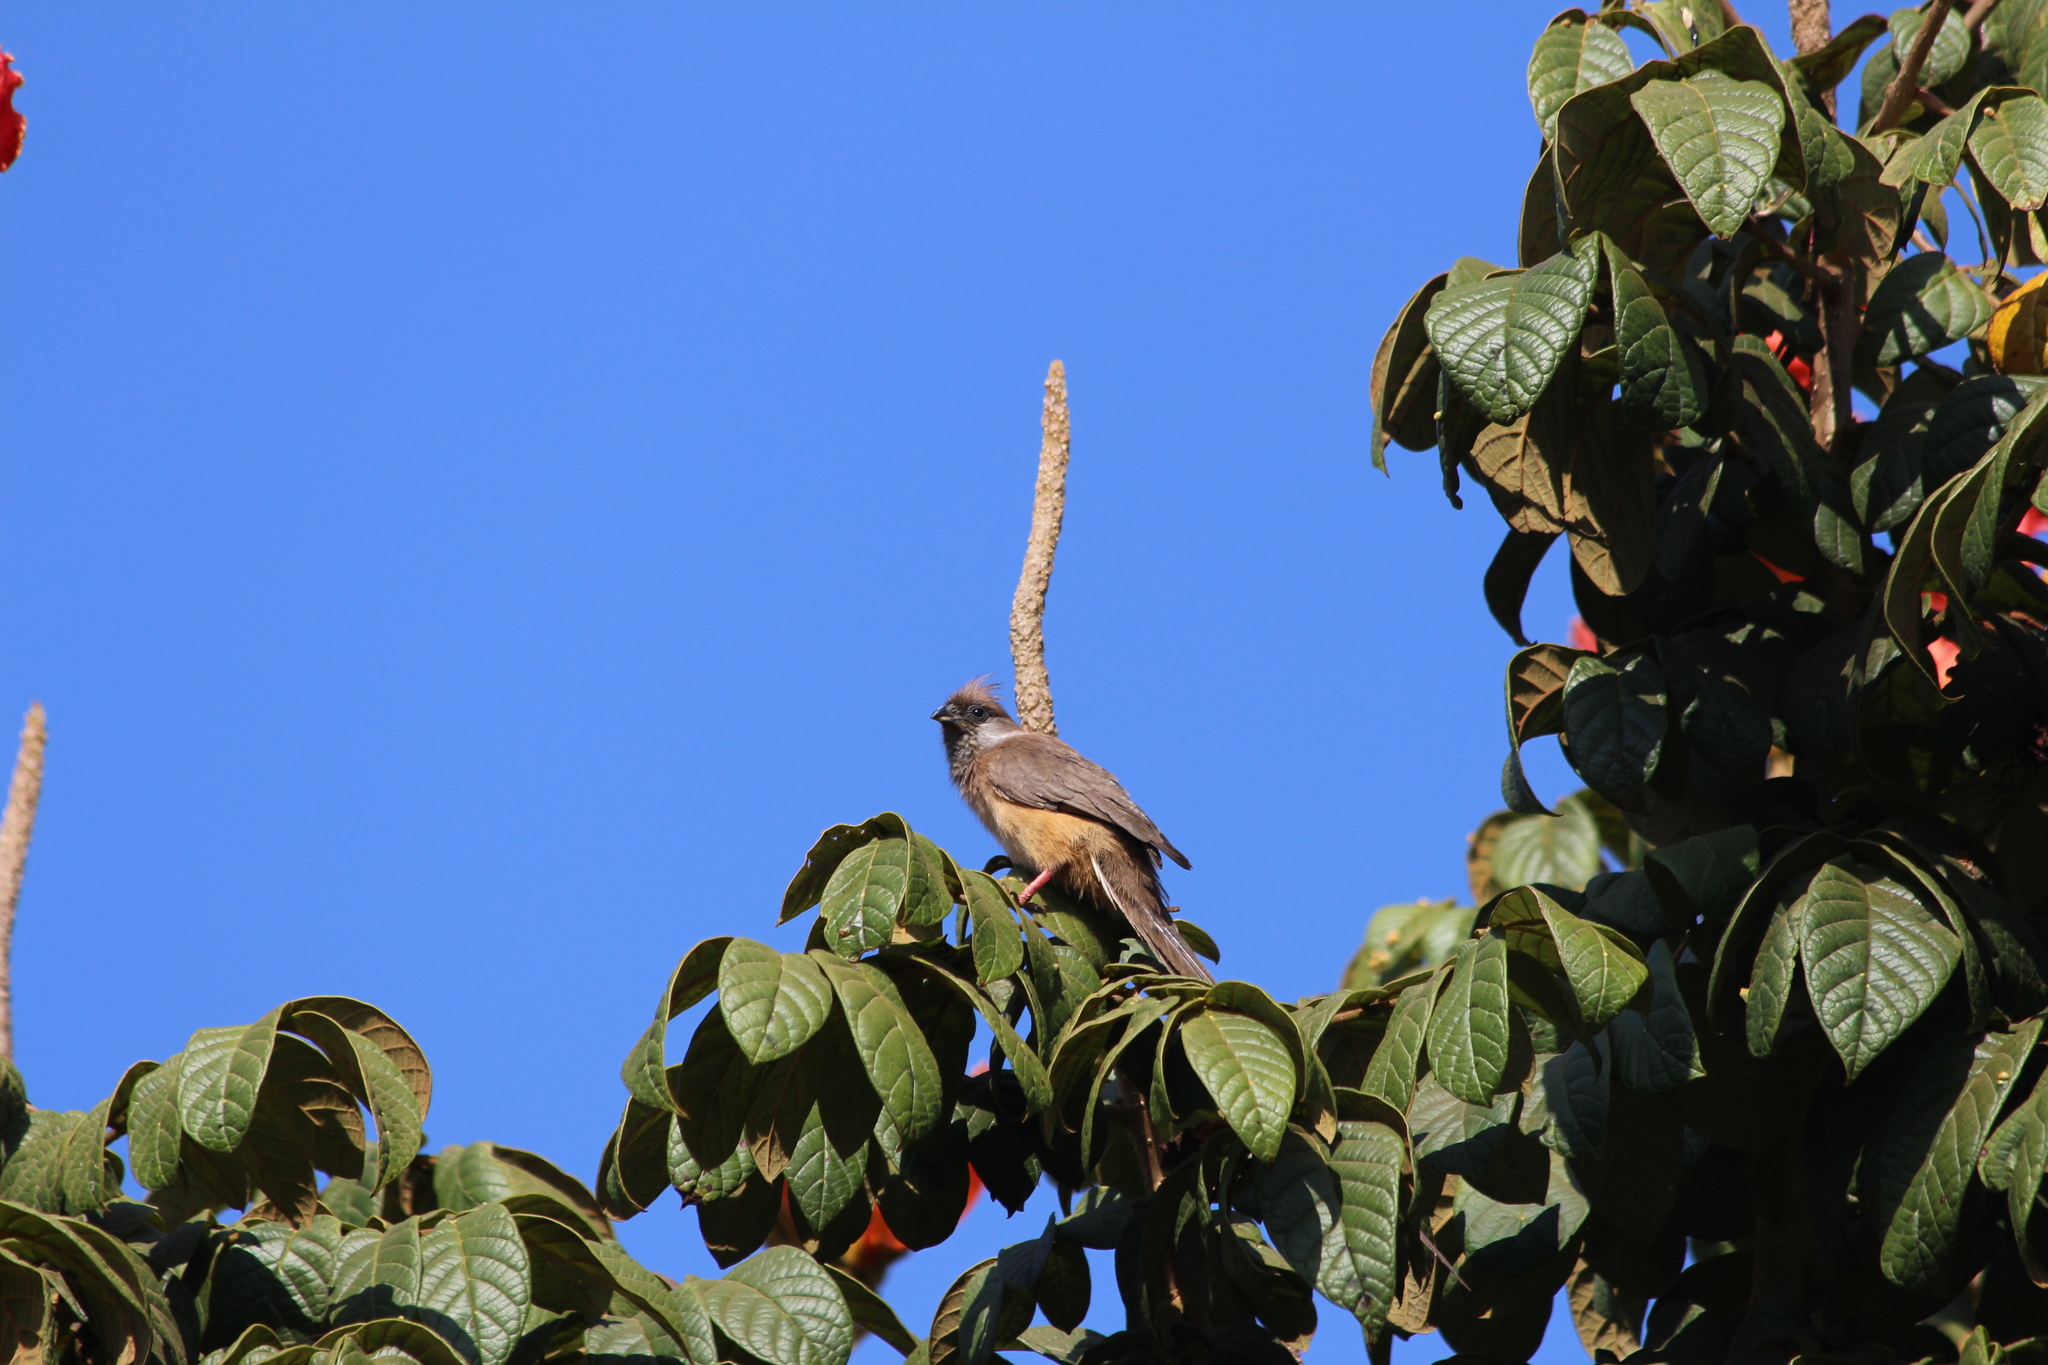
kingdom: Animalia
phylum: Chordata
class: Aves
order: Coliiformes
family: Coliidae
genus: Colius
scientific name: Colius striatus
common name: Speckled mousebird
